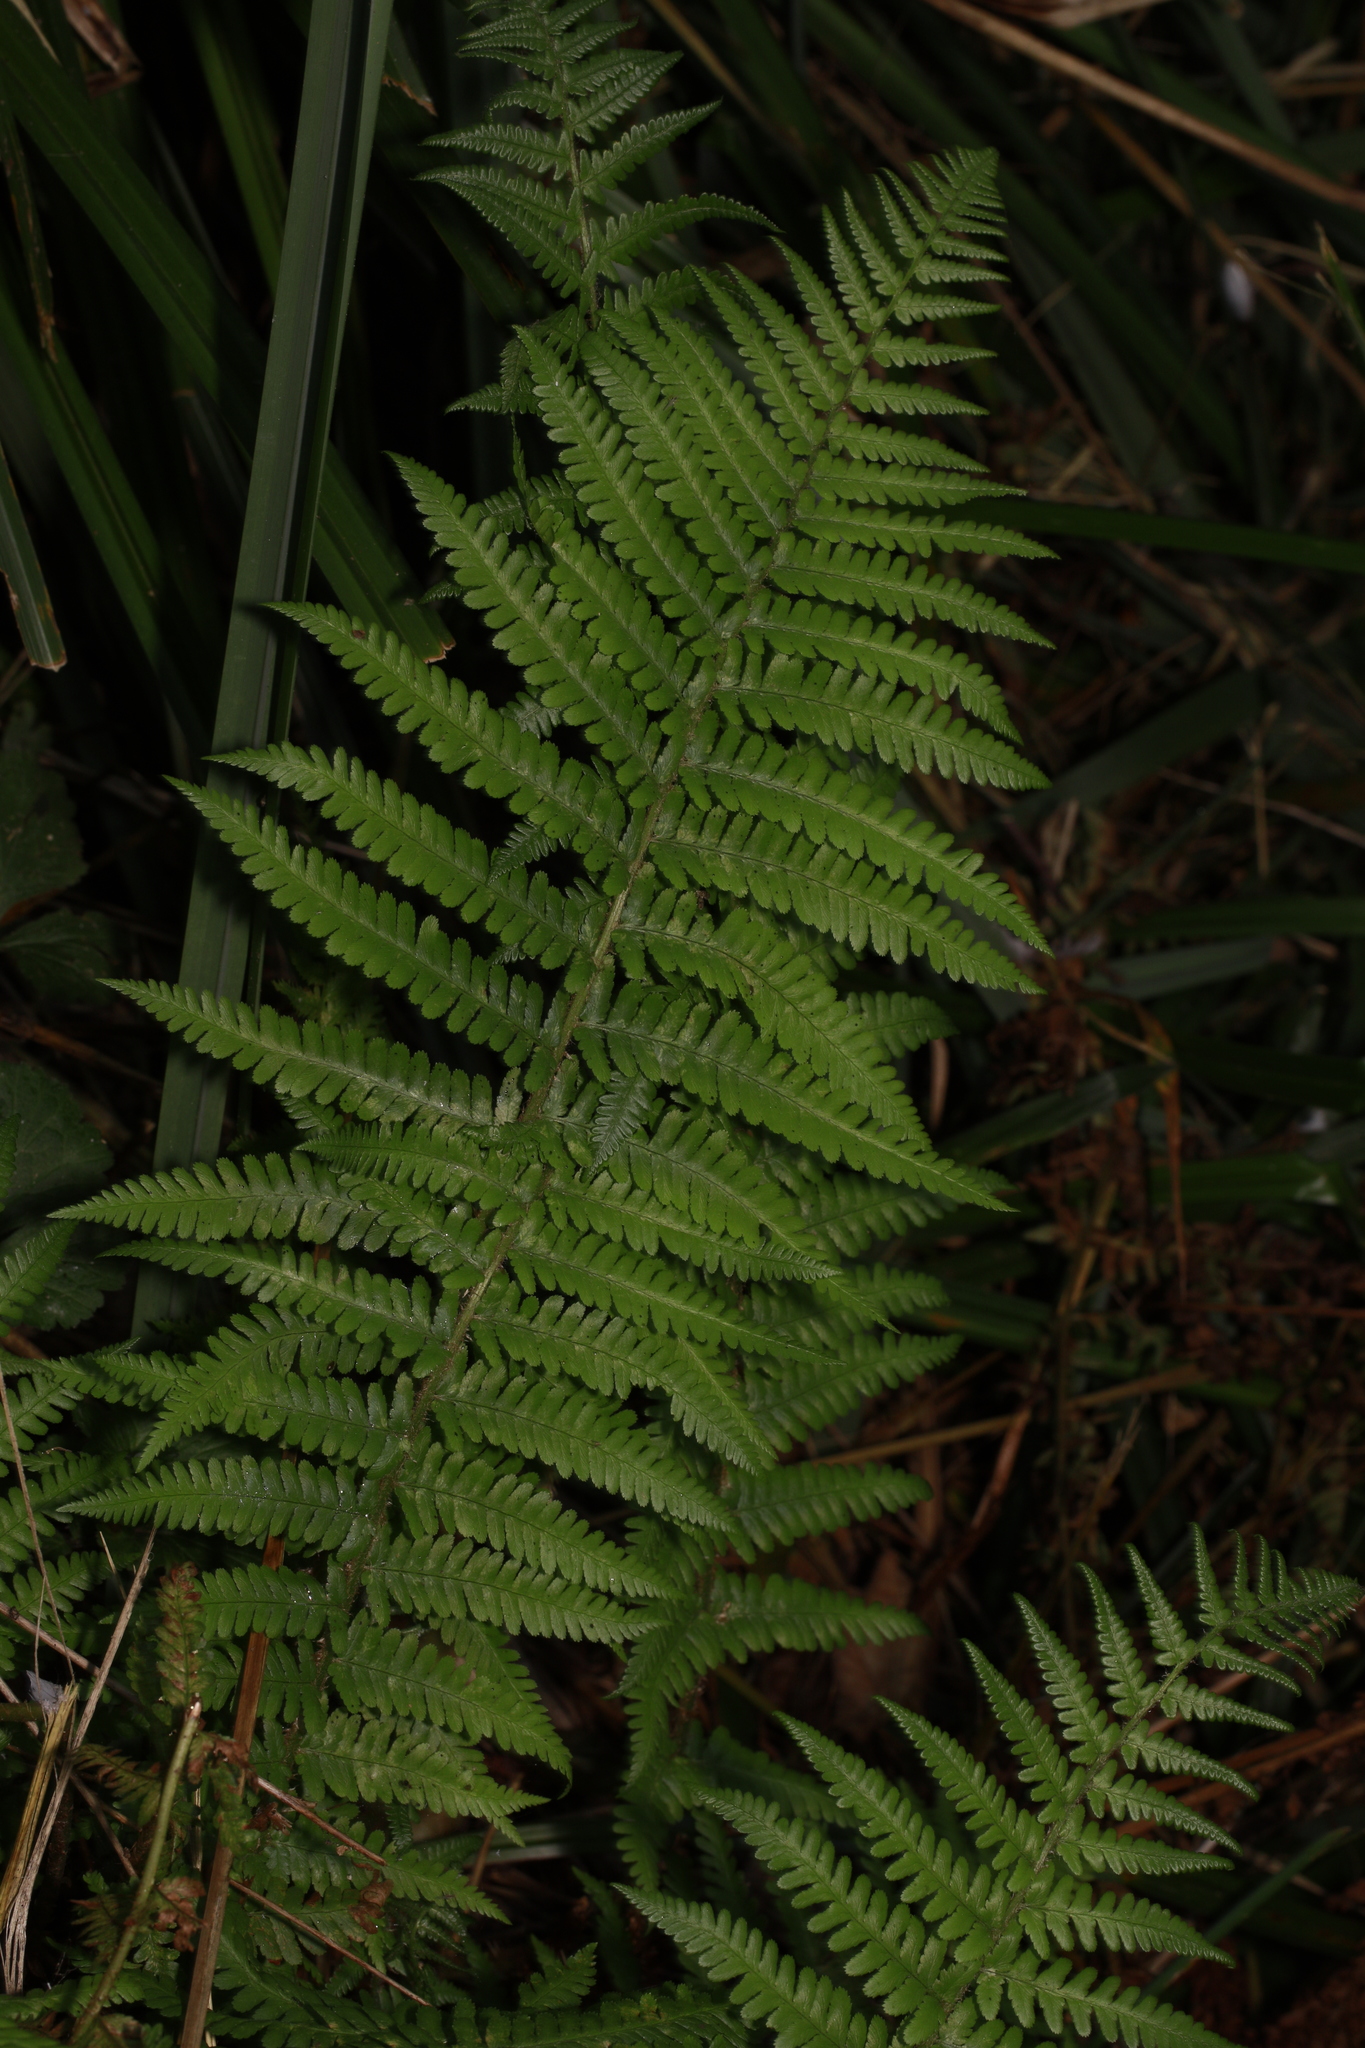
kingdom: Plantae
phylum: Tracheophyta
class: Polypodiopsida
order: Polypodiales
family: Dryopteridaceae
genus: Dryopteris
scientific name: Dryopteris filix-mas
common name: Male fern
